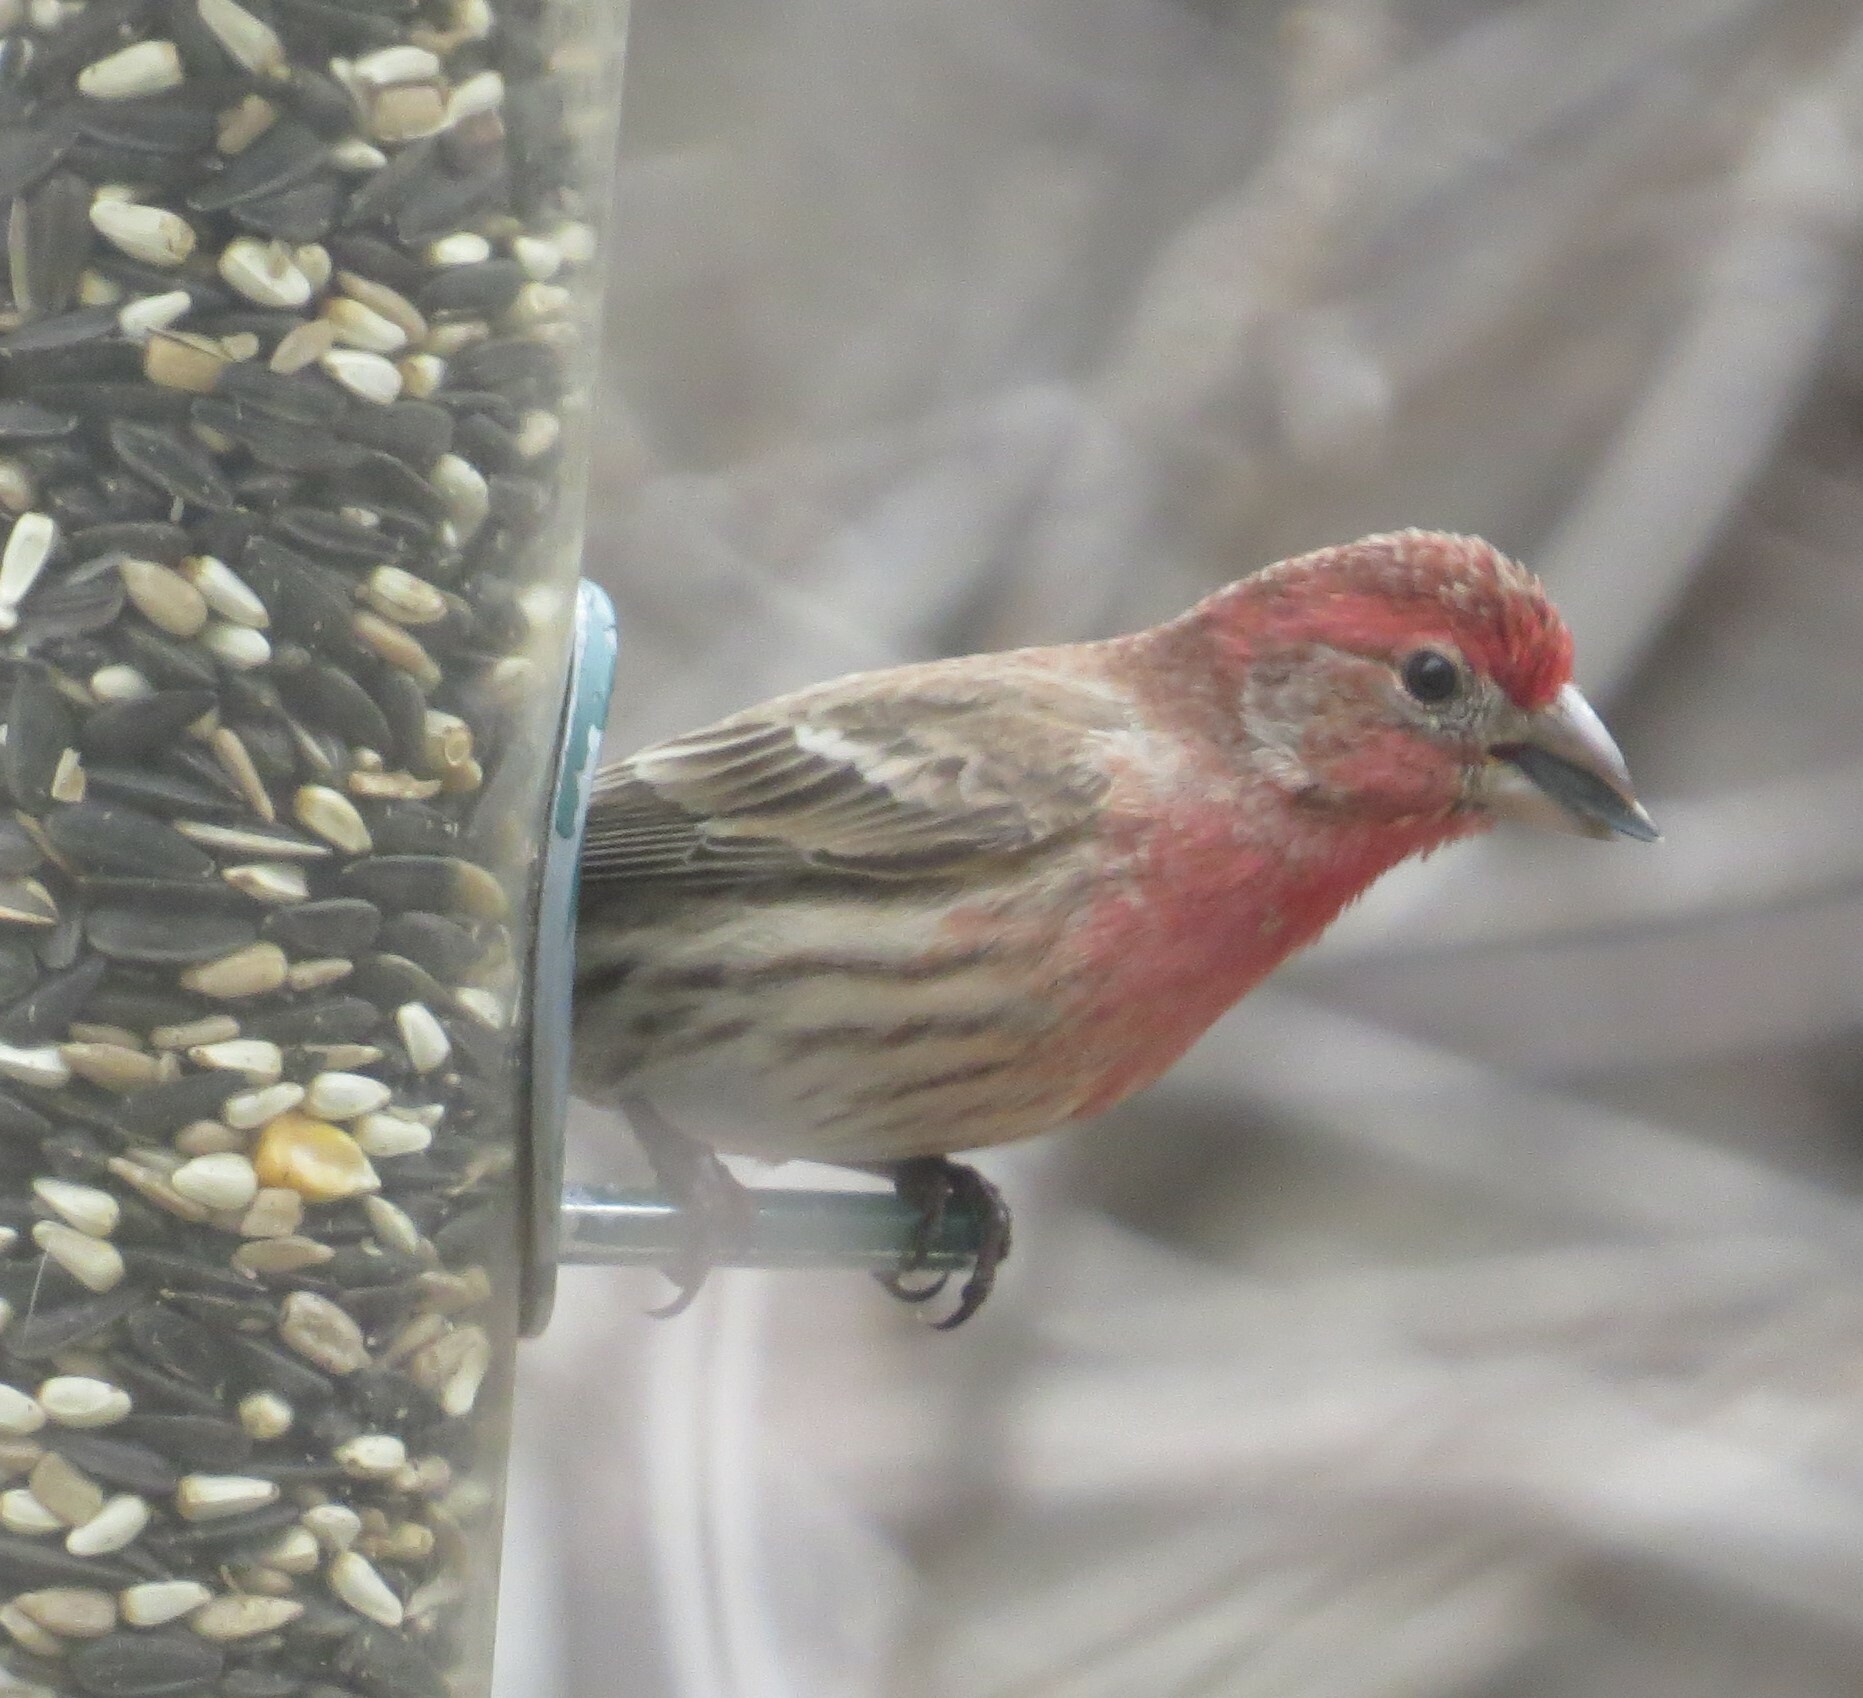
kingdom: Animalia
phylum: Chordata
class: Aves
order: Passeriformes
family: Fringillidae
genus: Haemorhous
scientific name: Haemorhous mexicanus
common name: House finch
